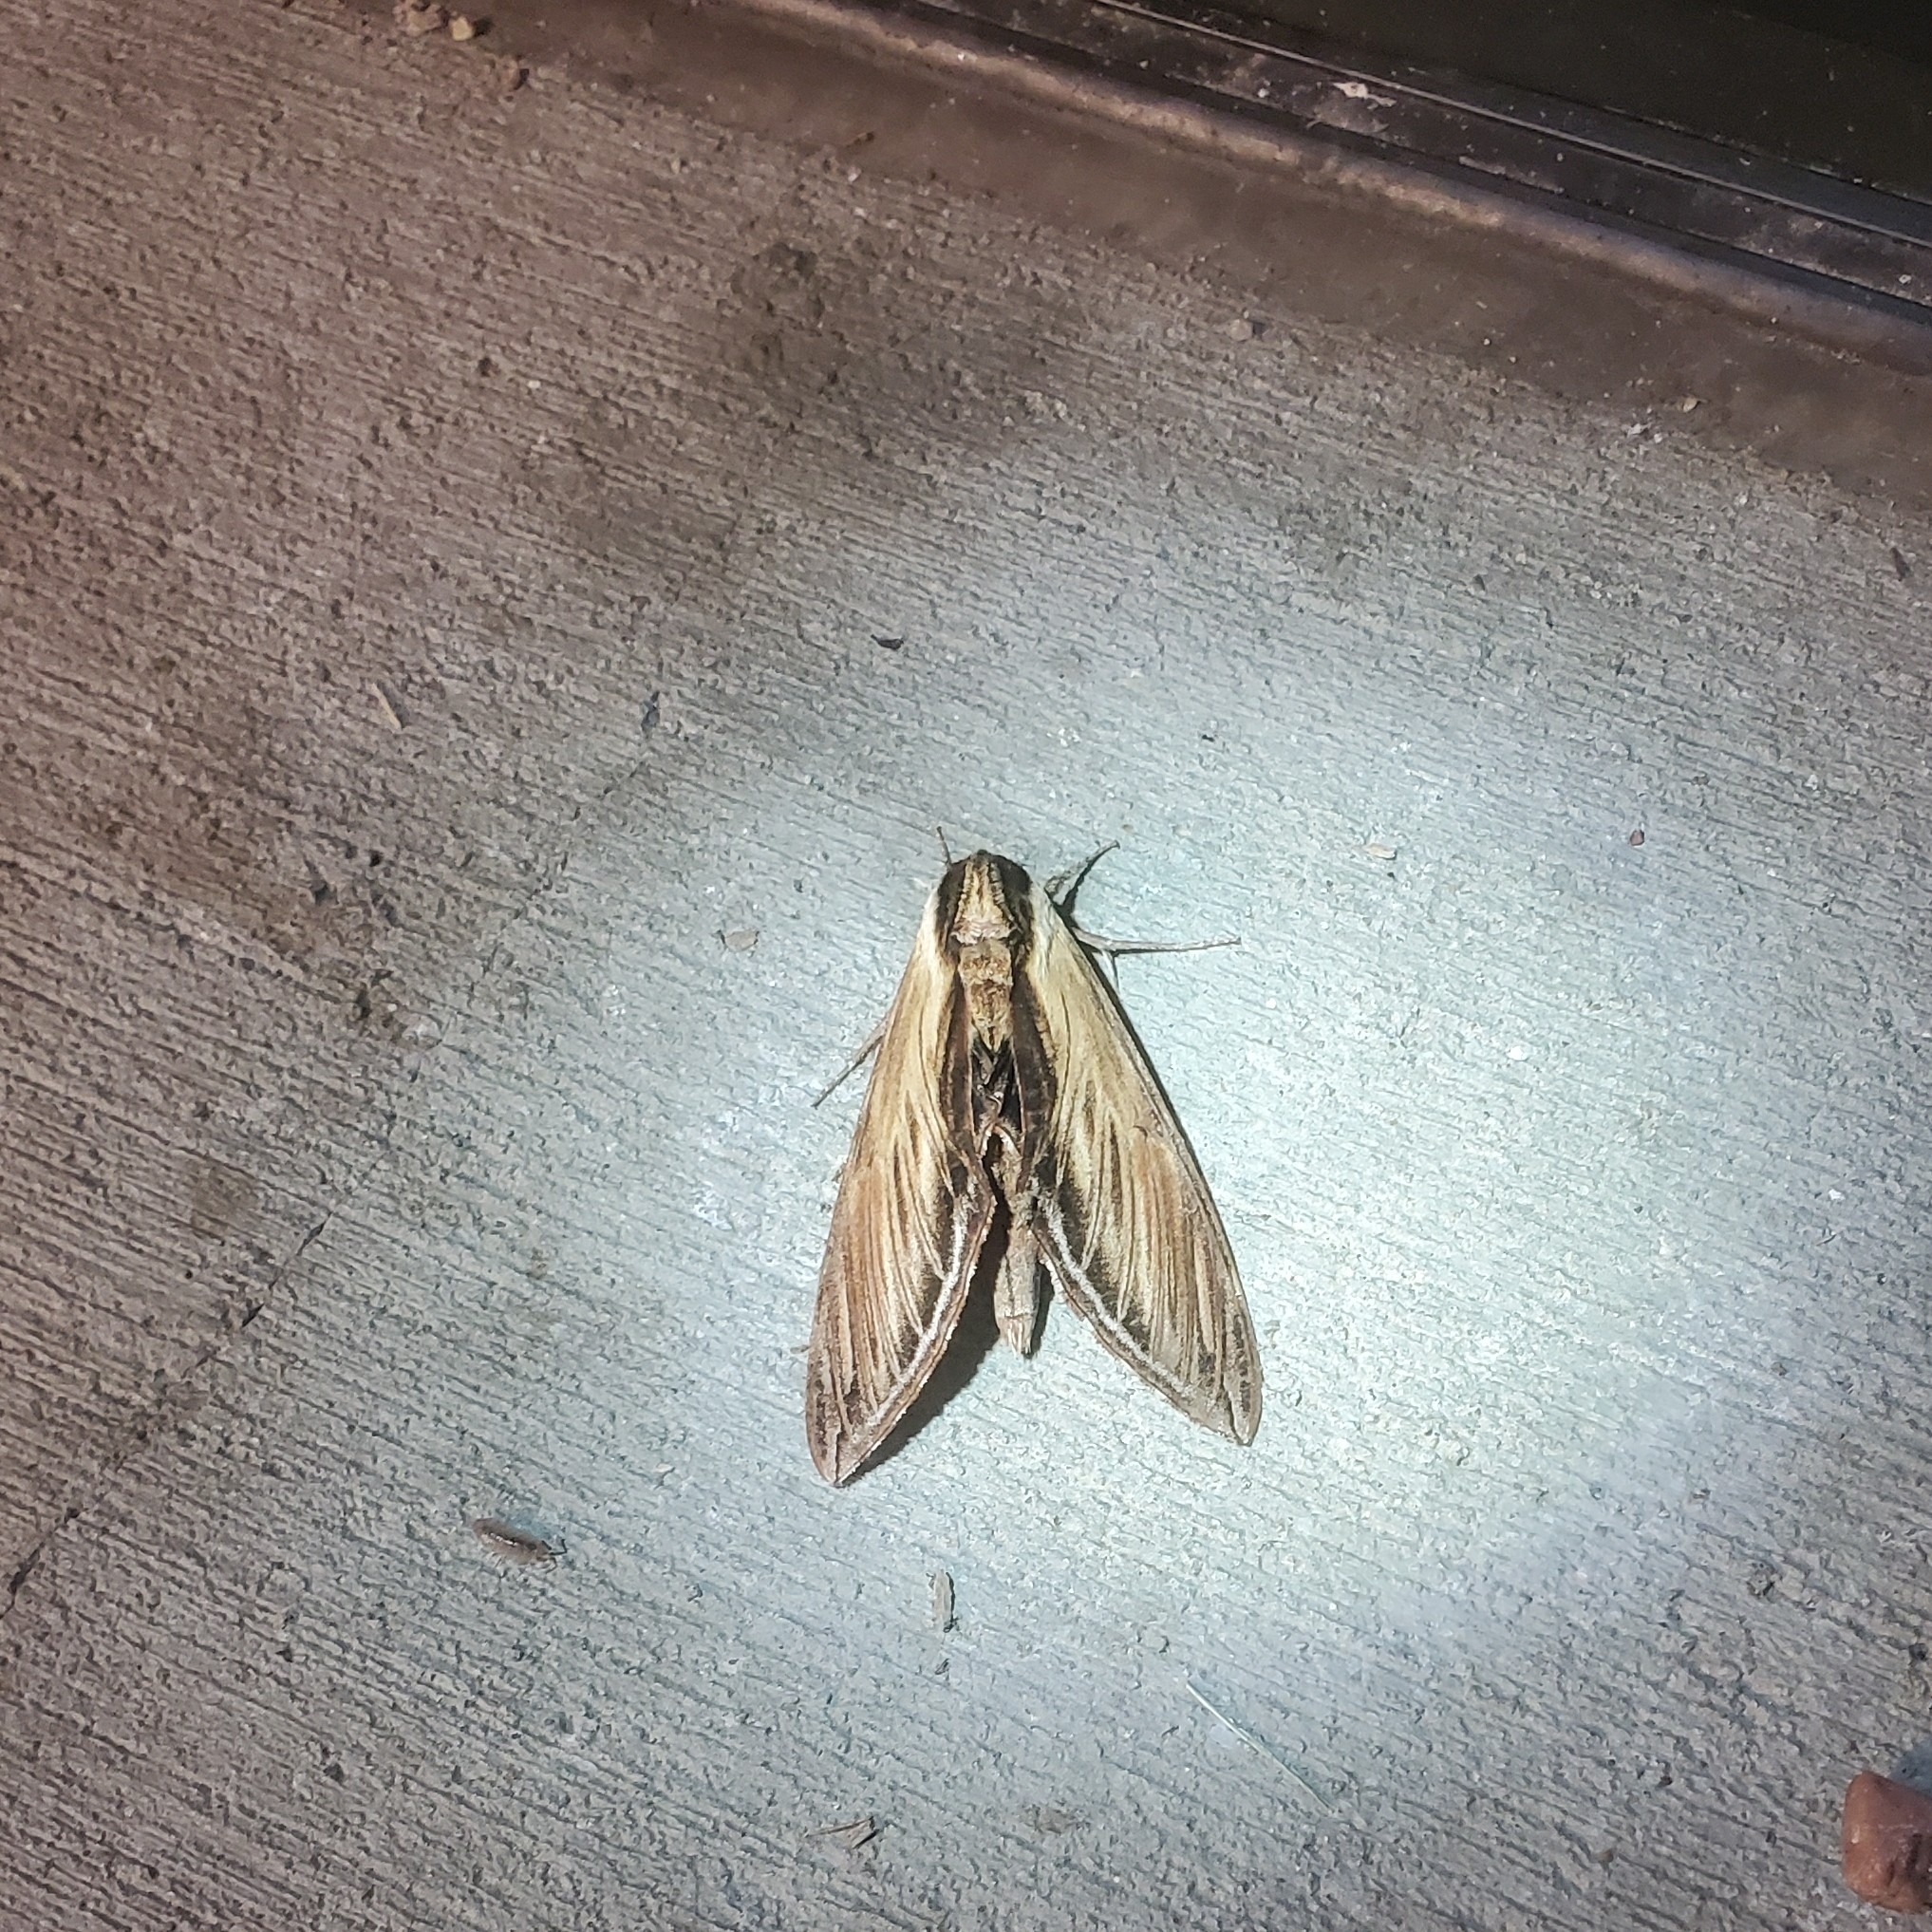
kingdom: Animalia
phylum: Arthropoda
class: Insecta
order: Lepidoptera
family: Sphingidae
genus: Sphinx
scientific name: Sphinx kalmiae
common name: Laurel sphinx
